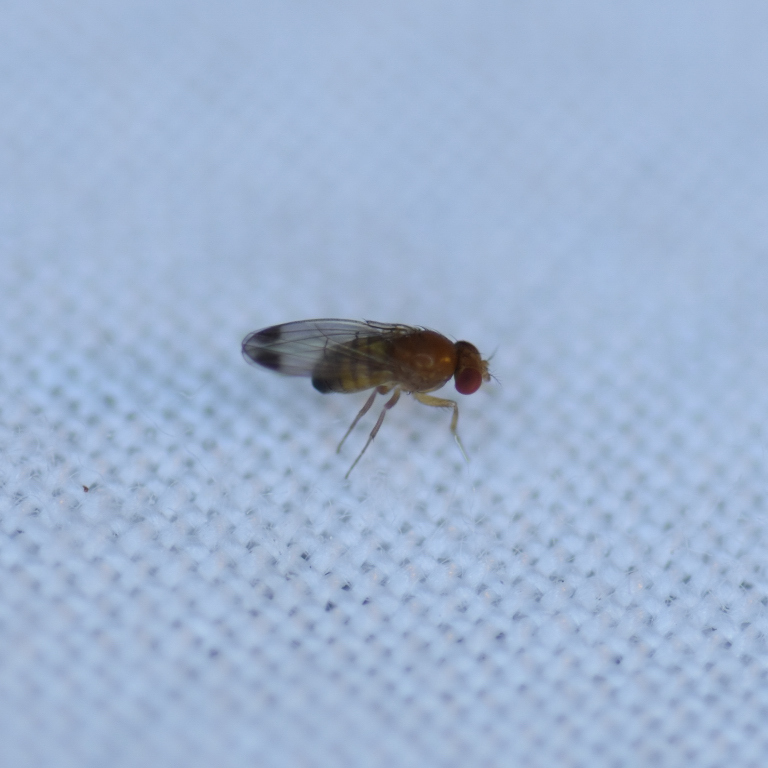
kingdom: Animalia
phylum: Arthropoda
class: Insecta
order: Diptera
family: Drosophilidae
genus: Drosophila
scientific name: Drosophila suzukii
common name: Spotted-wing drosophila
